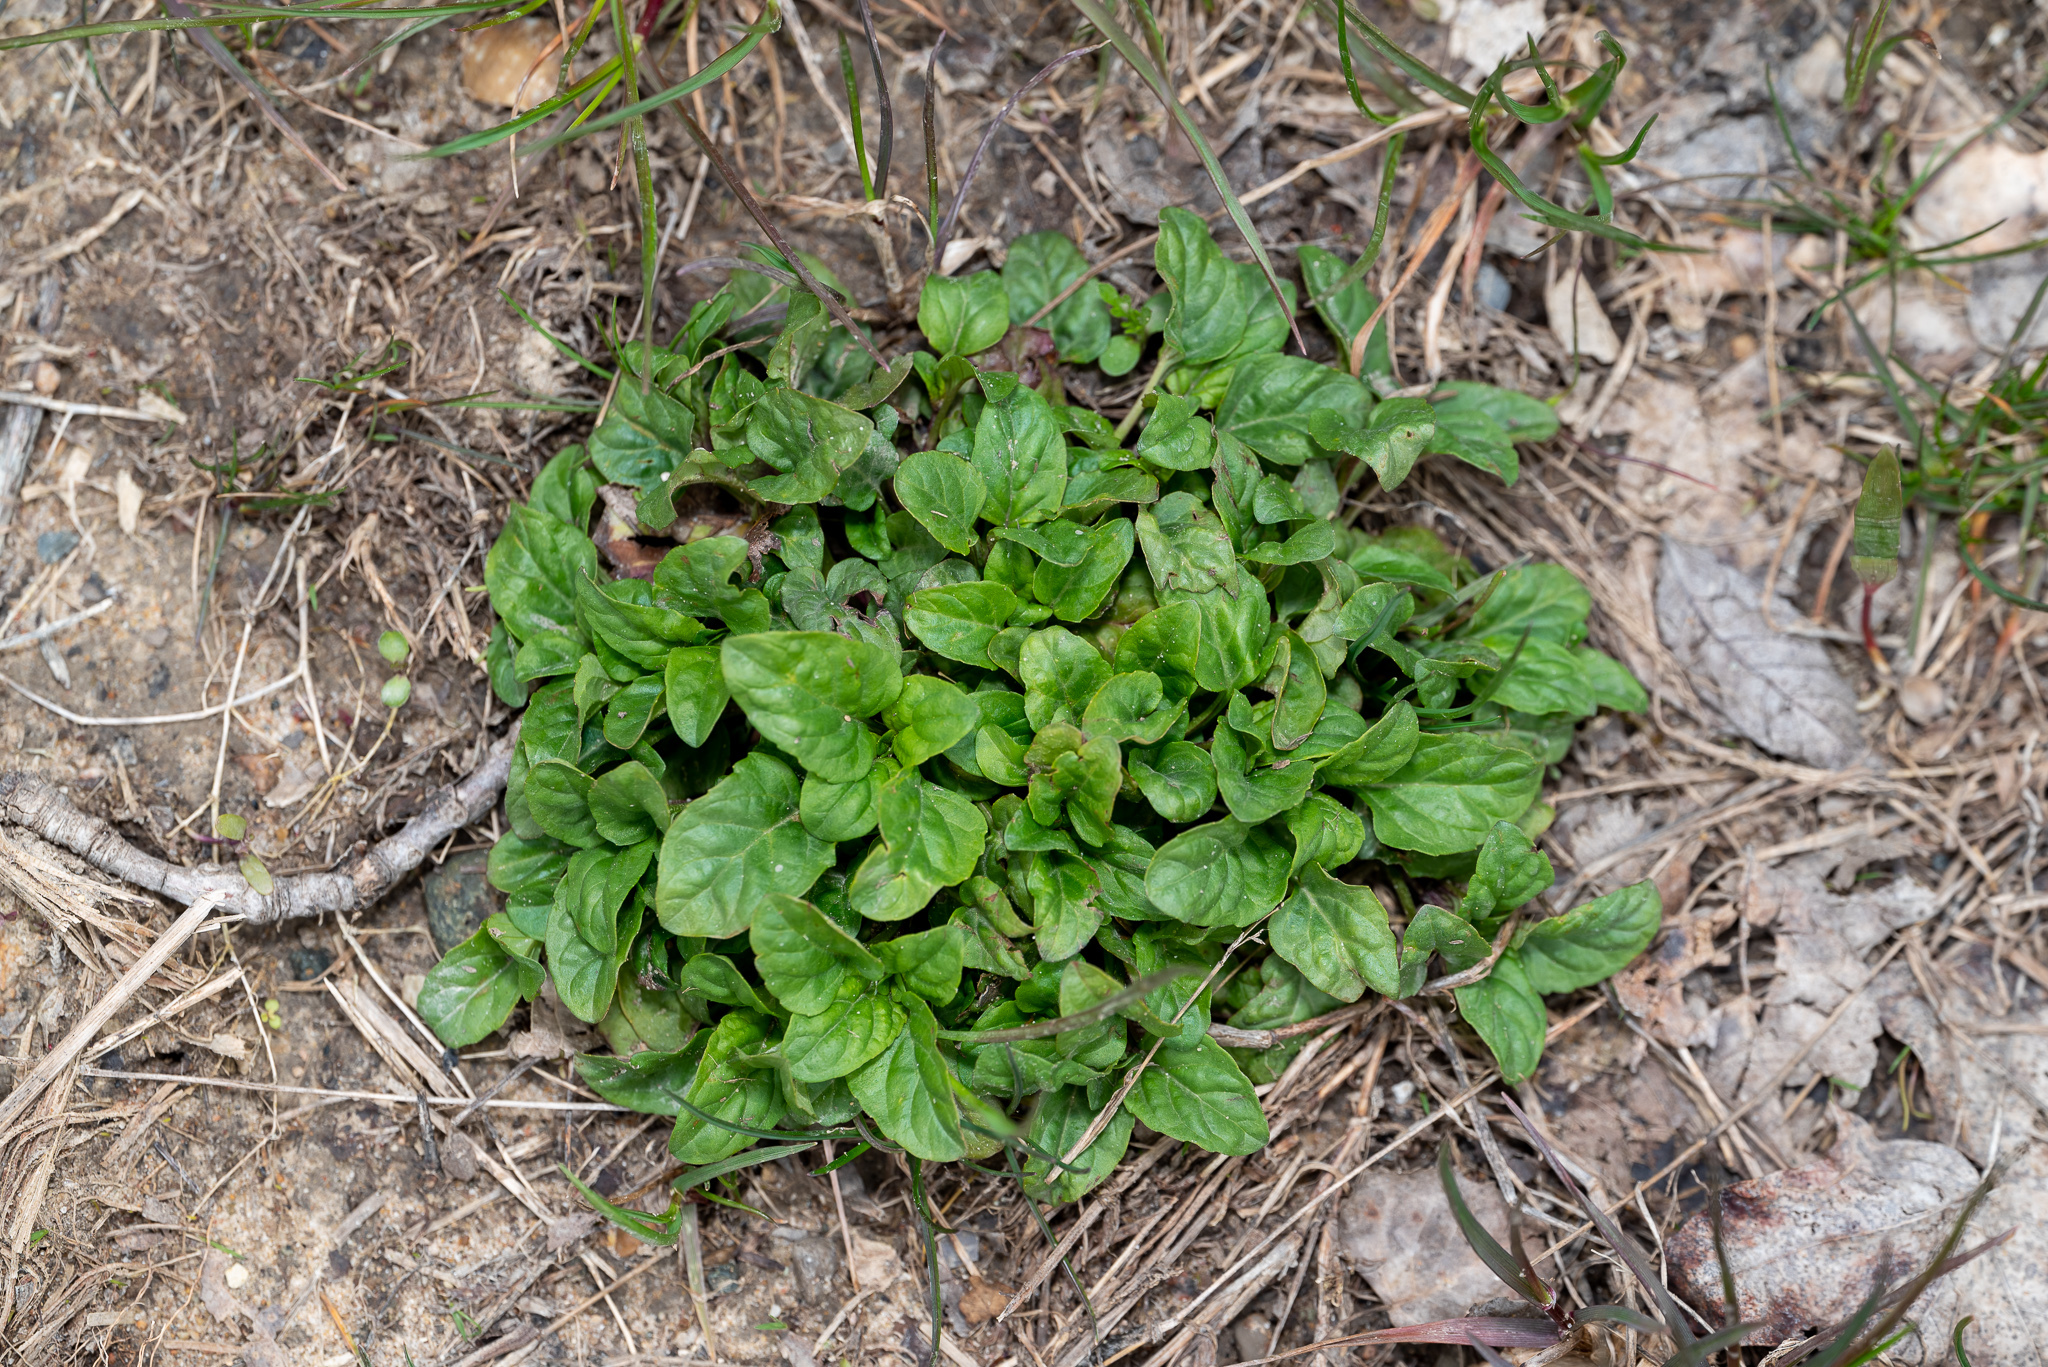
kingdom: Plantae
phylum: Tracheophyta
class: Magnoliopsida
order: Lamiales
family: Lamiaceae
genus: Prunella
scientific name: Prunella vulgaris
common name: Heal-all
